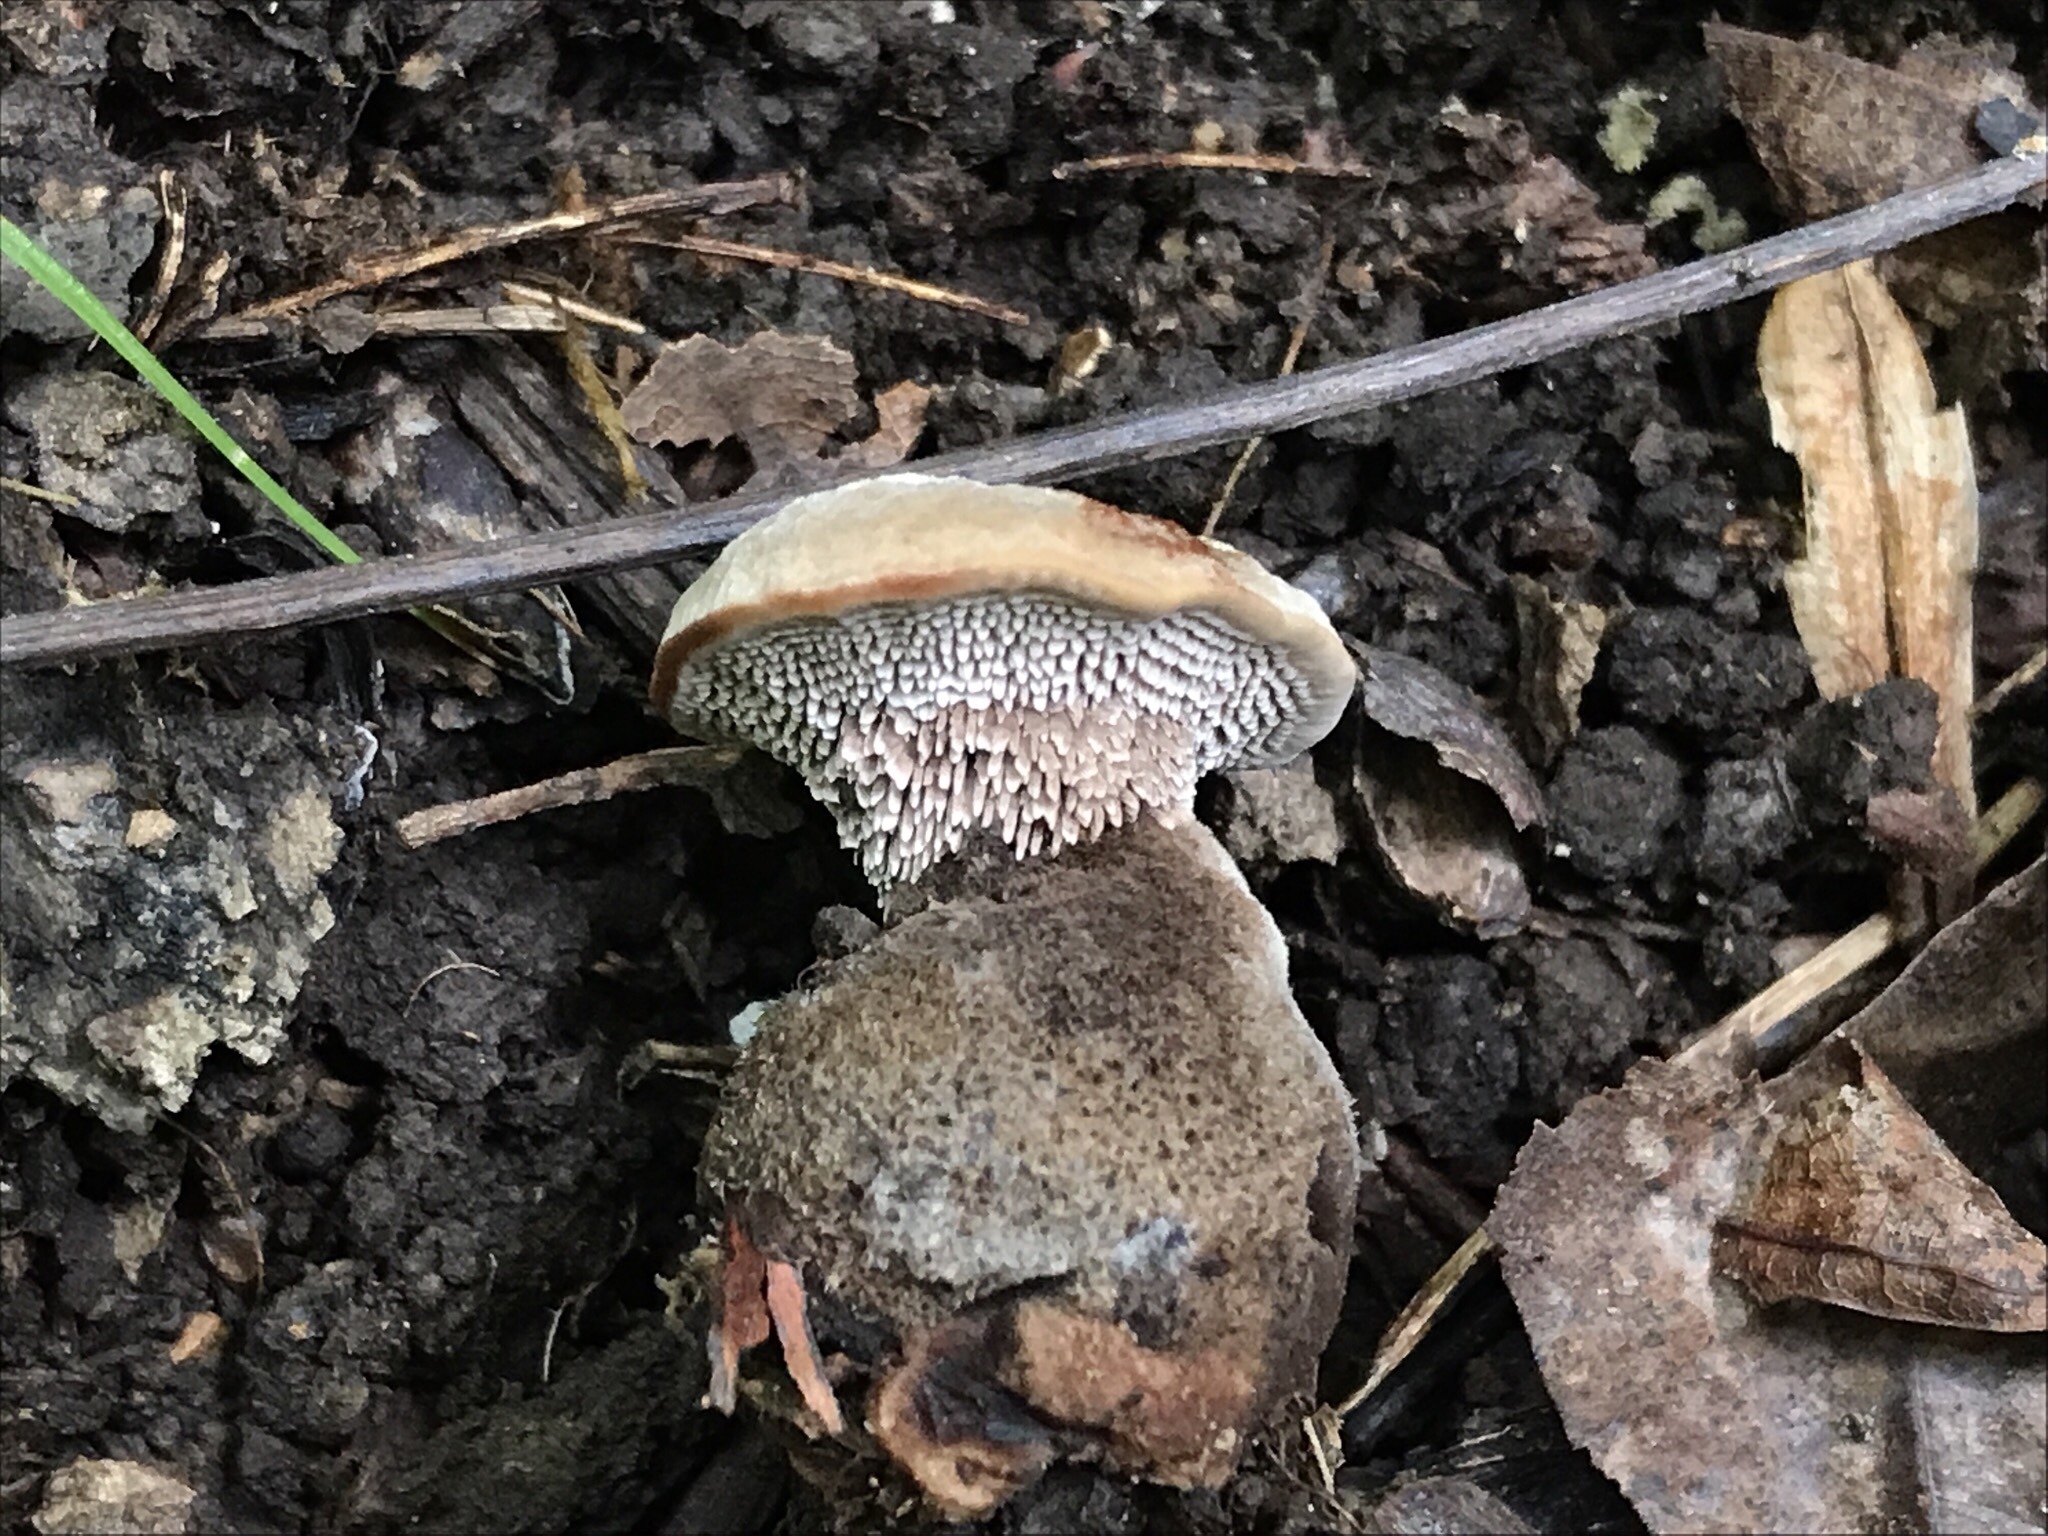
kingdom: Fungi
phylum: Basidiomycota
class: Agaricomycetes
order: Thelephorales
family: Bankeraceae
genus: Hydnellum
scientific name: Hydnellum spongiosipes
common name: Velvet tooth
